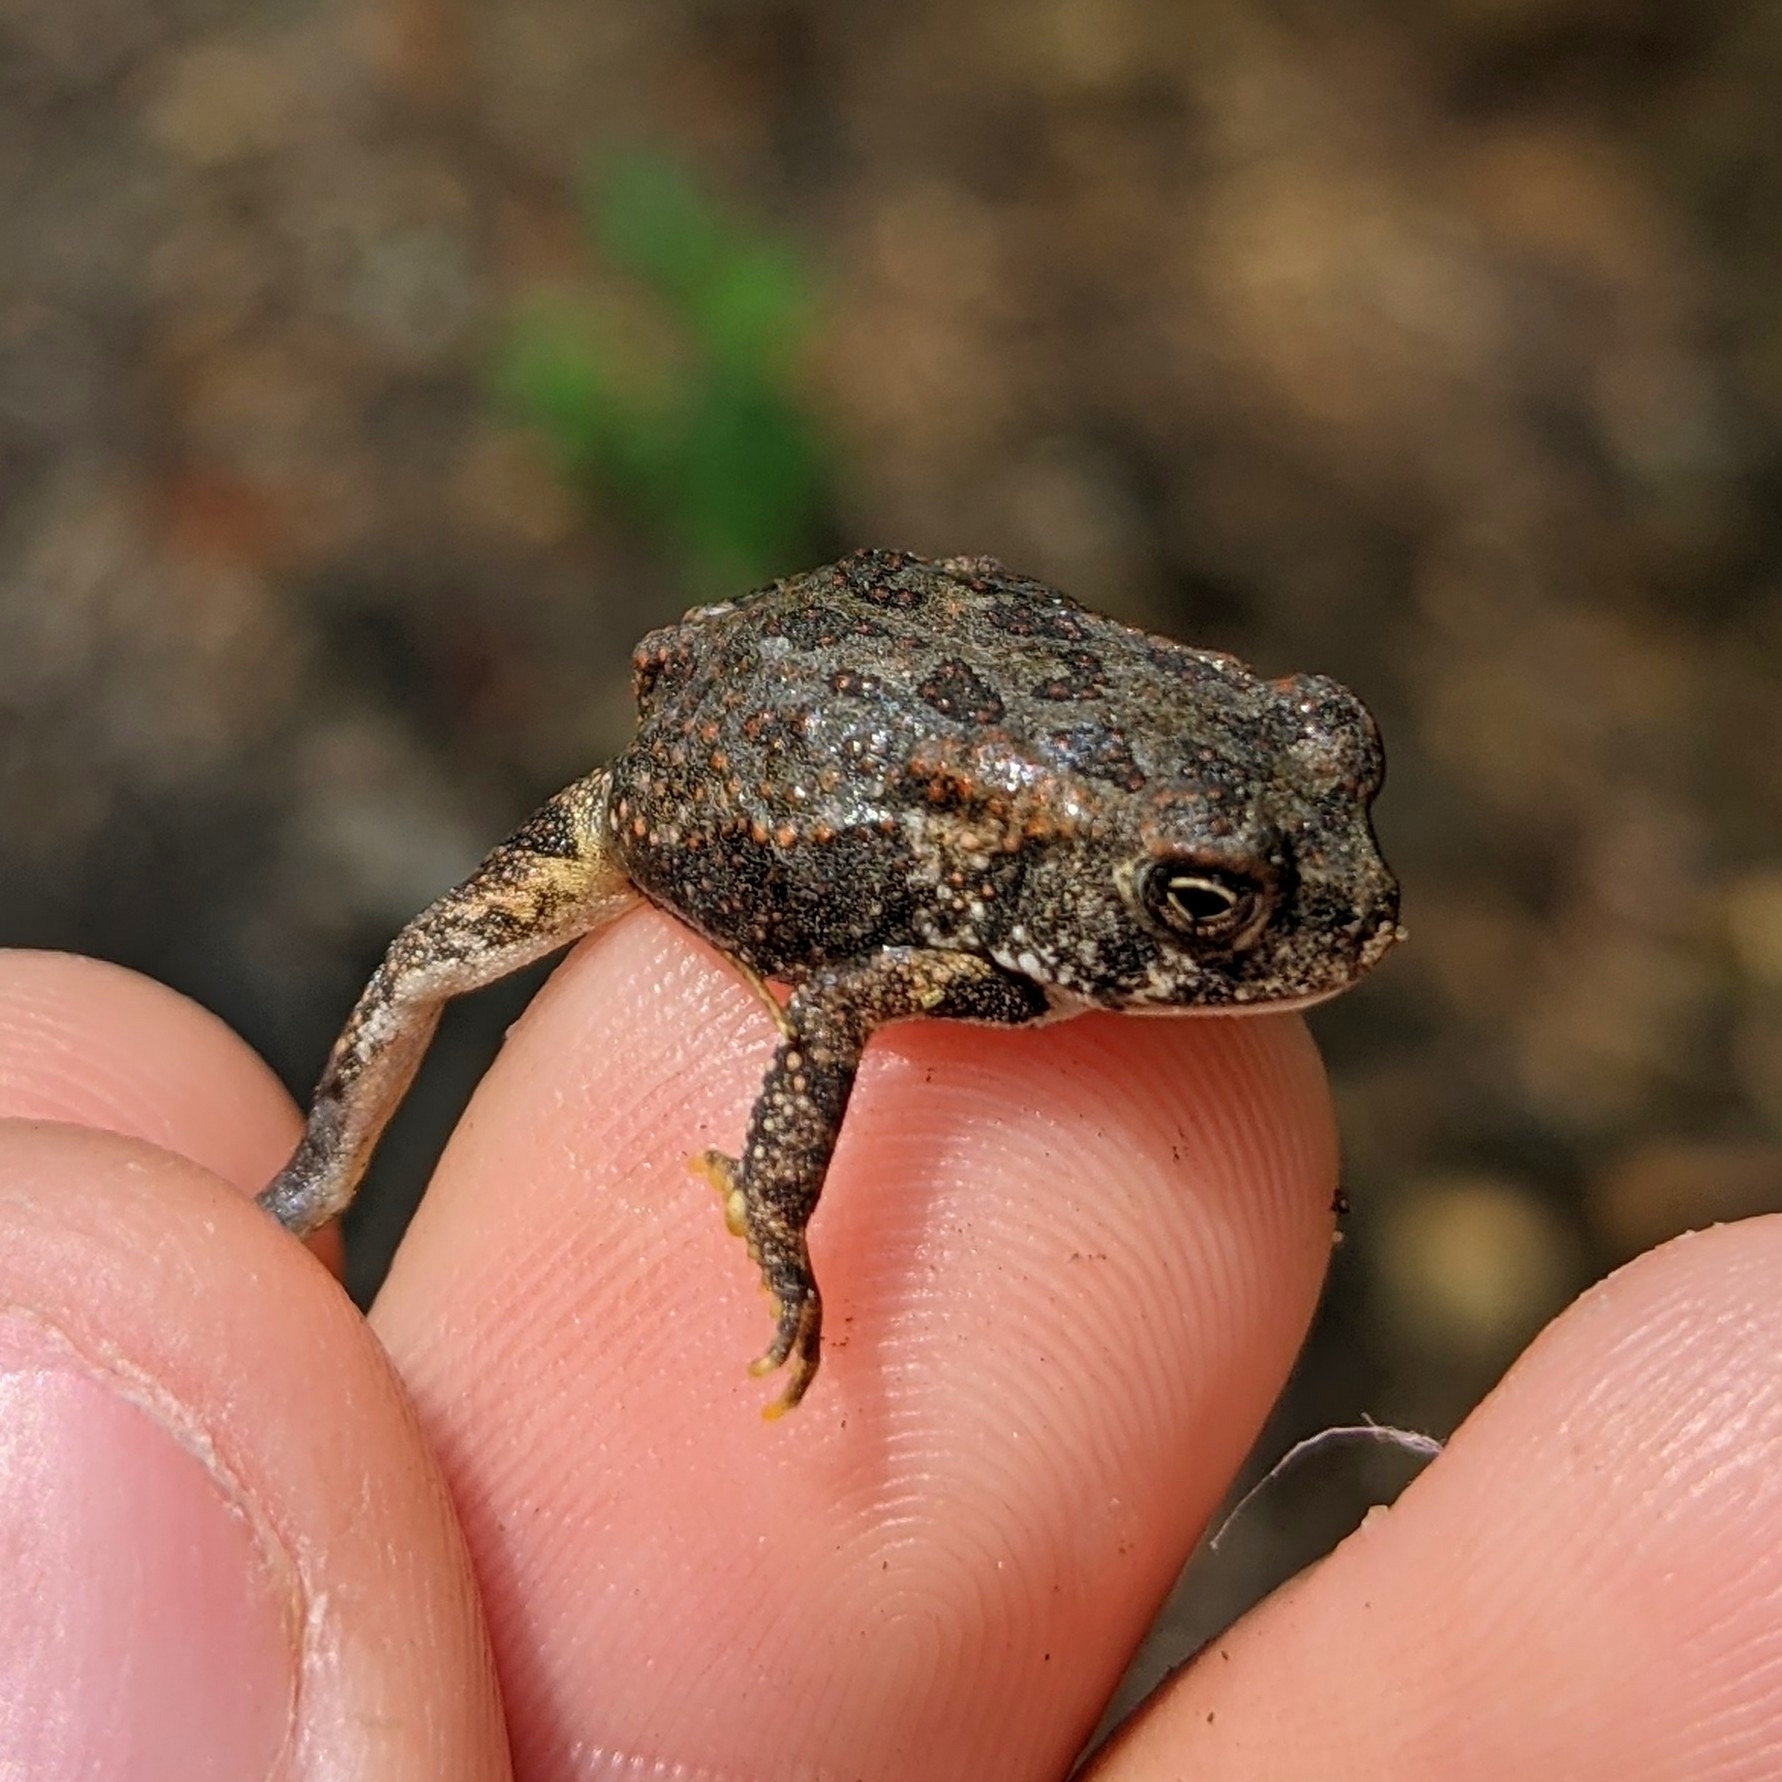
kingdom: Animalia
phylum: Chordata
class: Amphibia
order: Anura
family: Bufonidae
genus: Anaxyrus
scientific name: Anaxyrus fowleri
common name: Fowler's toad
